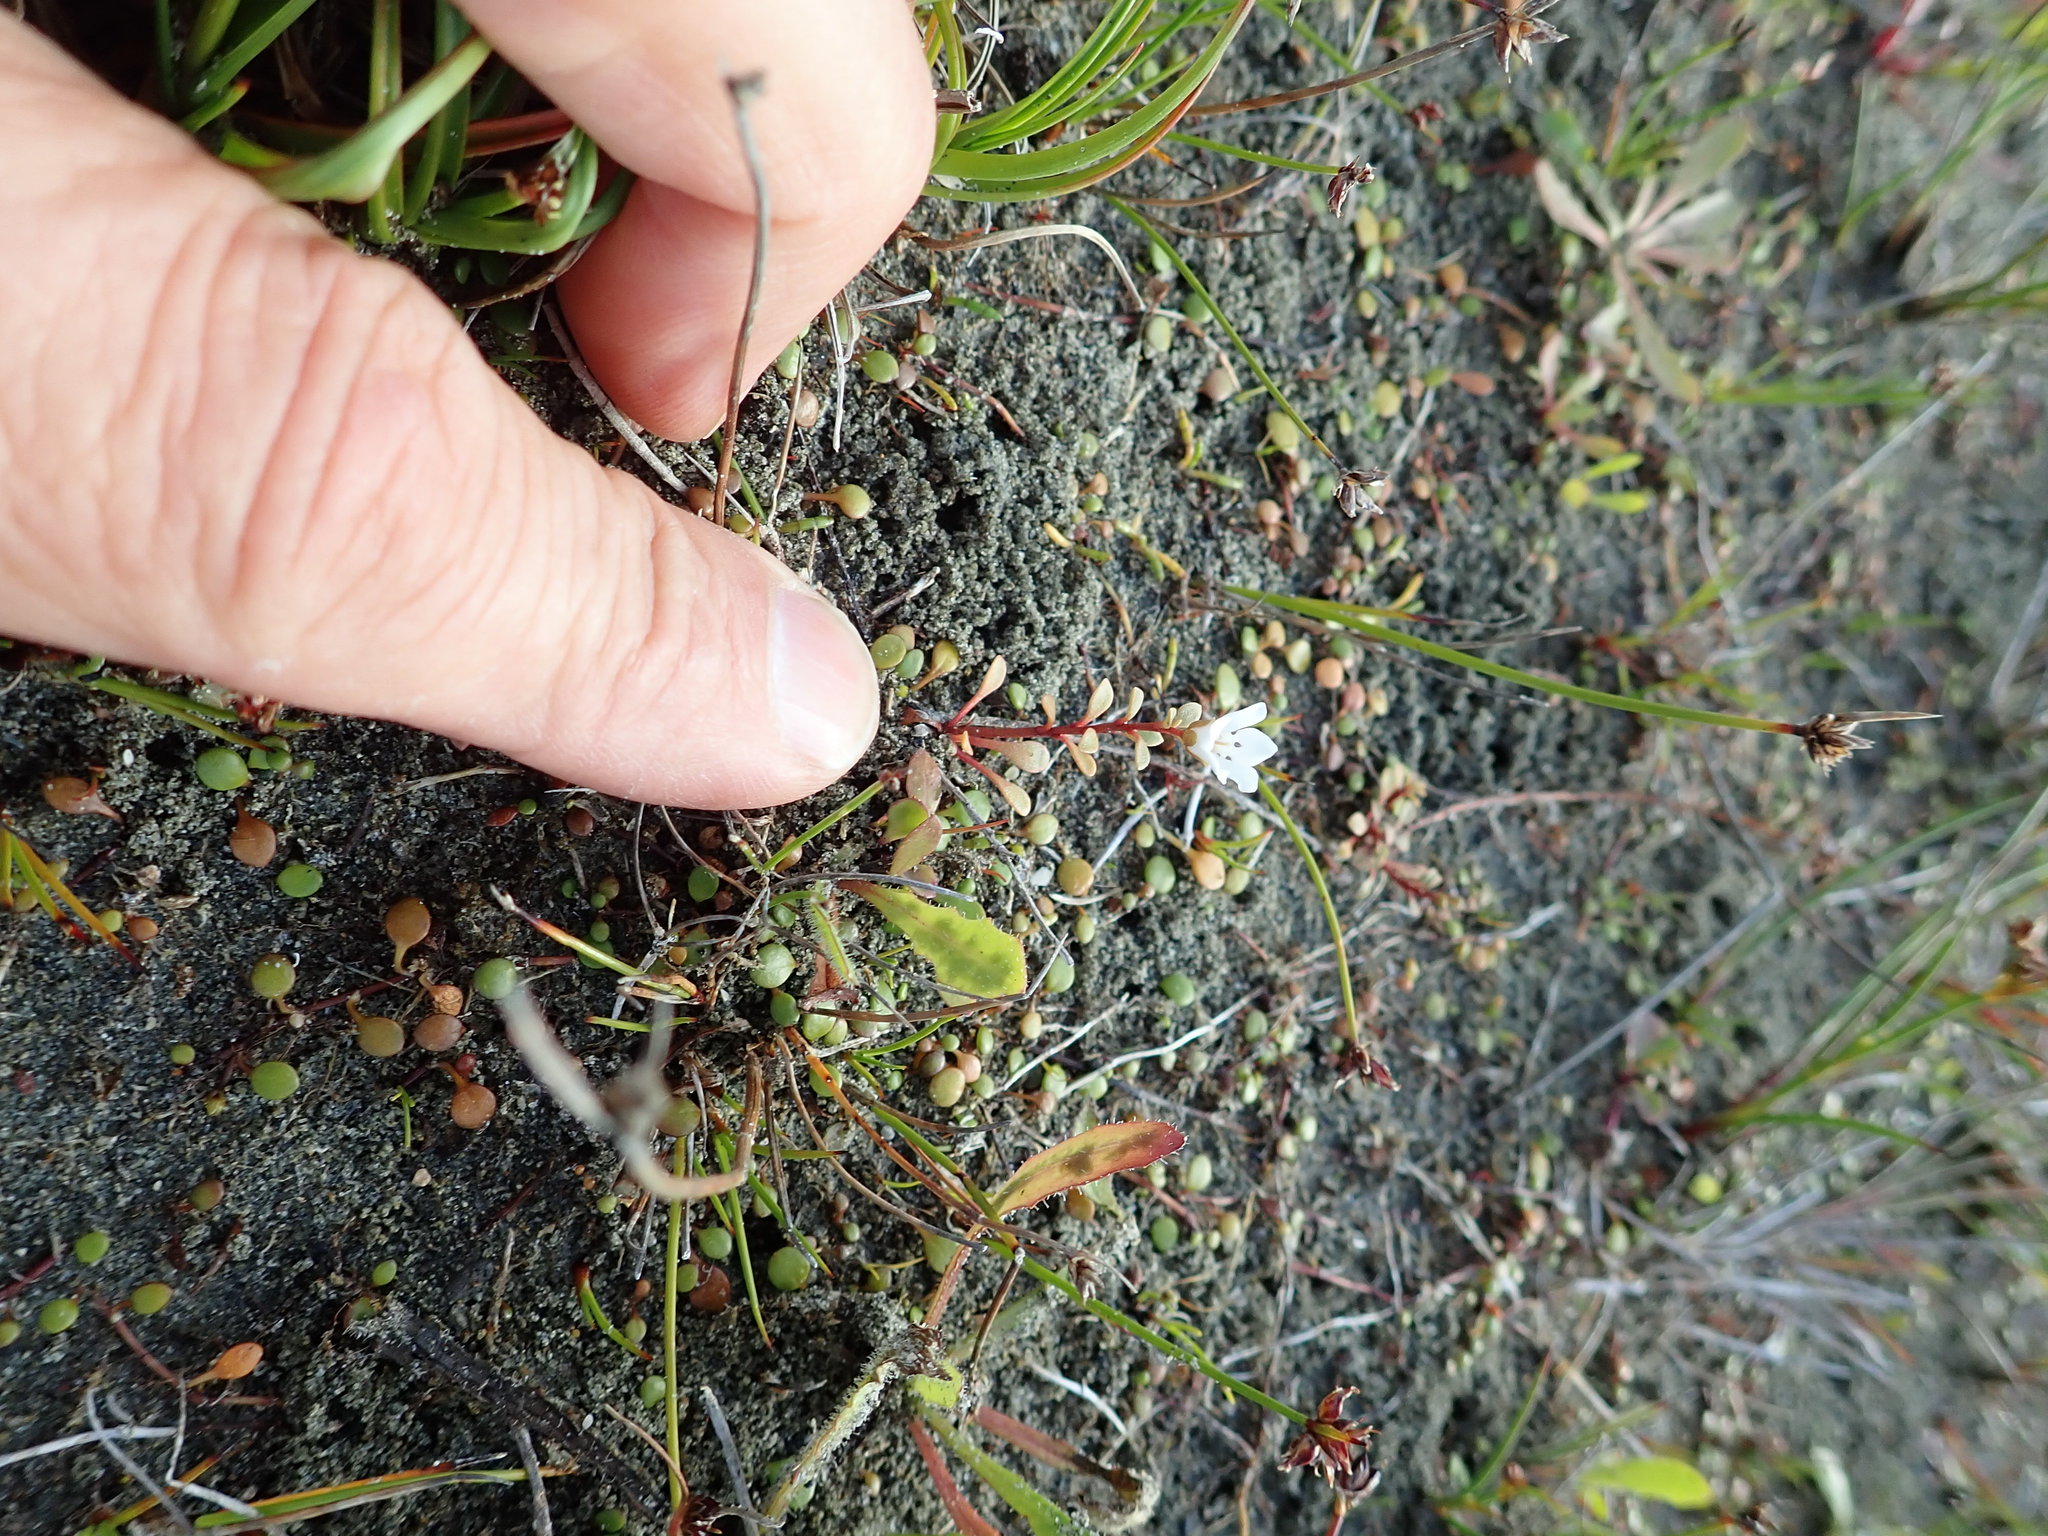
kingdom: Plantae
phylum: Tracheophyta
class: Magnoliopsida
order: Ericales
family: Primulaceae
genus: Samolus
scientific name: Samolus repens
